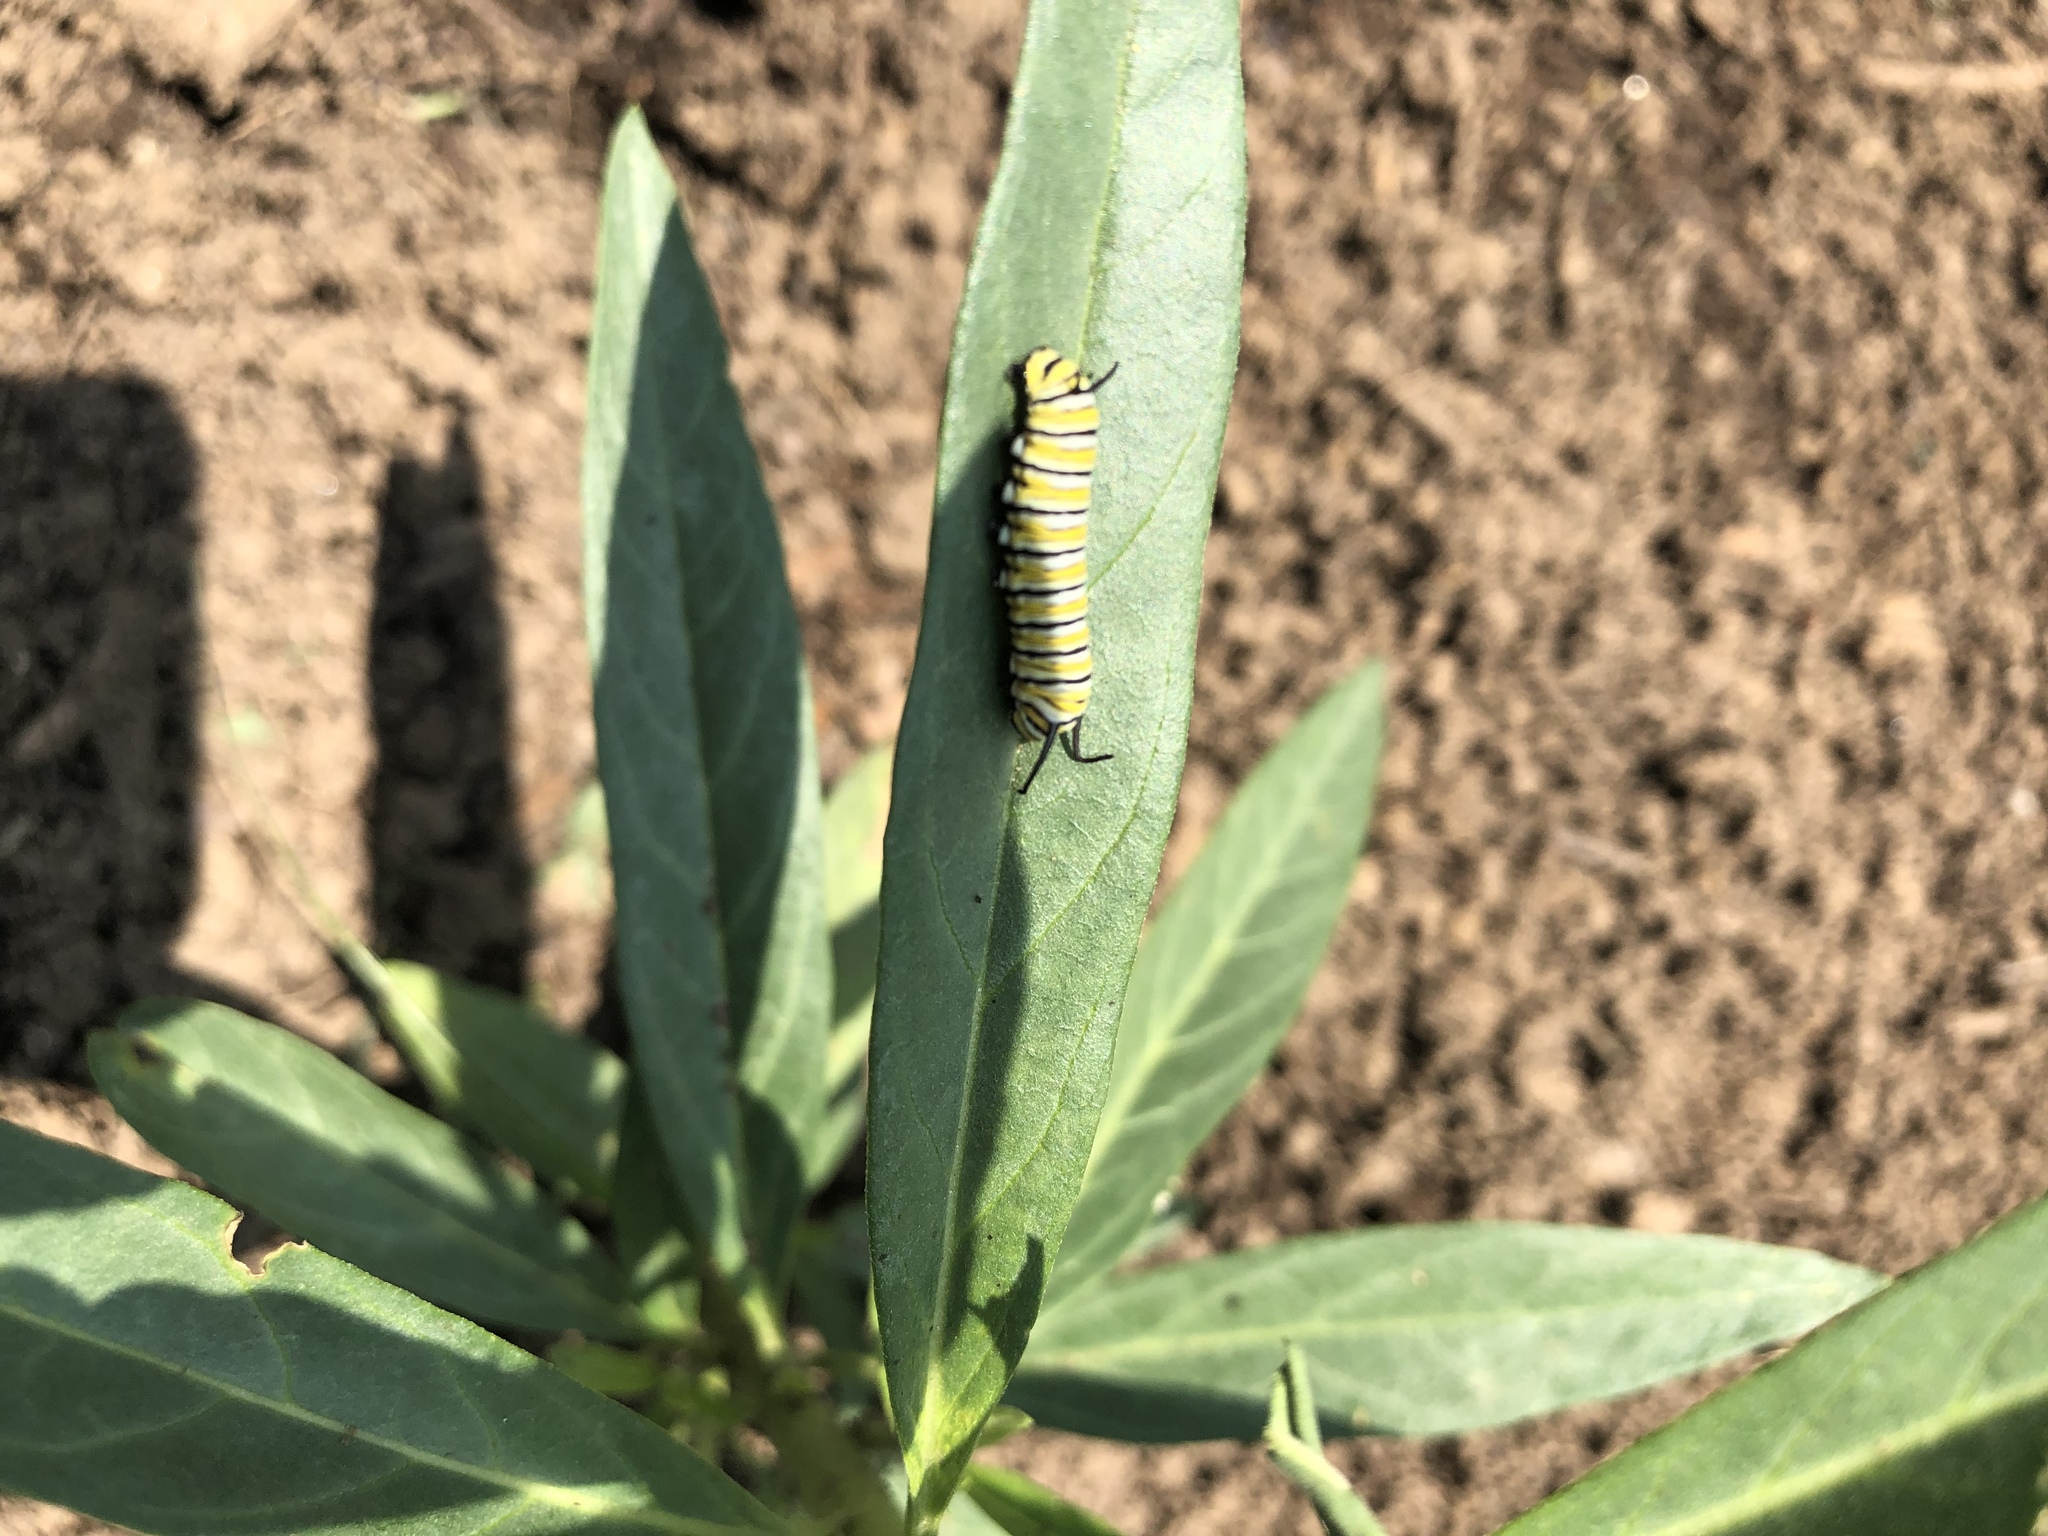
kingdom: Animalia
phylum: Arthropoda
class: Insecta
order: Lepidoptera
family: Nymphalidae
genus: Danaus
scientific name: Danaus plexippus
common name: Monarch
